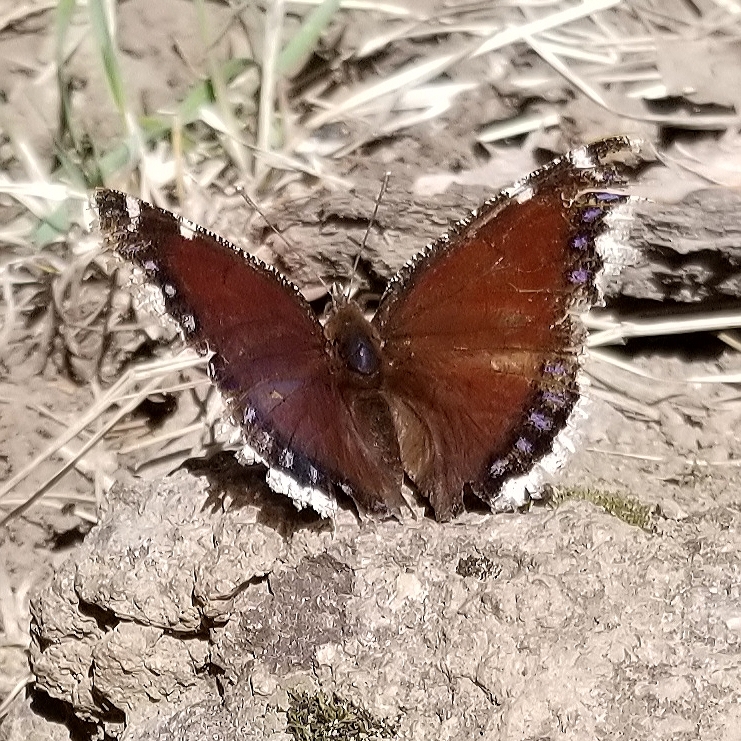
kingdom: Animalia
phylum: Arthropoda
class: Insecta
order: Lepidoptera
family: Nymphalidae
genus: Nymphalis
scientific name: Nymphalis antiopa
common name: Camberwell beauty
